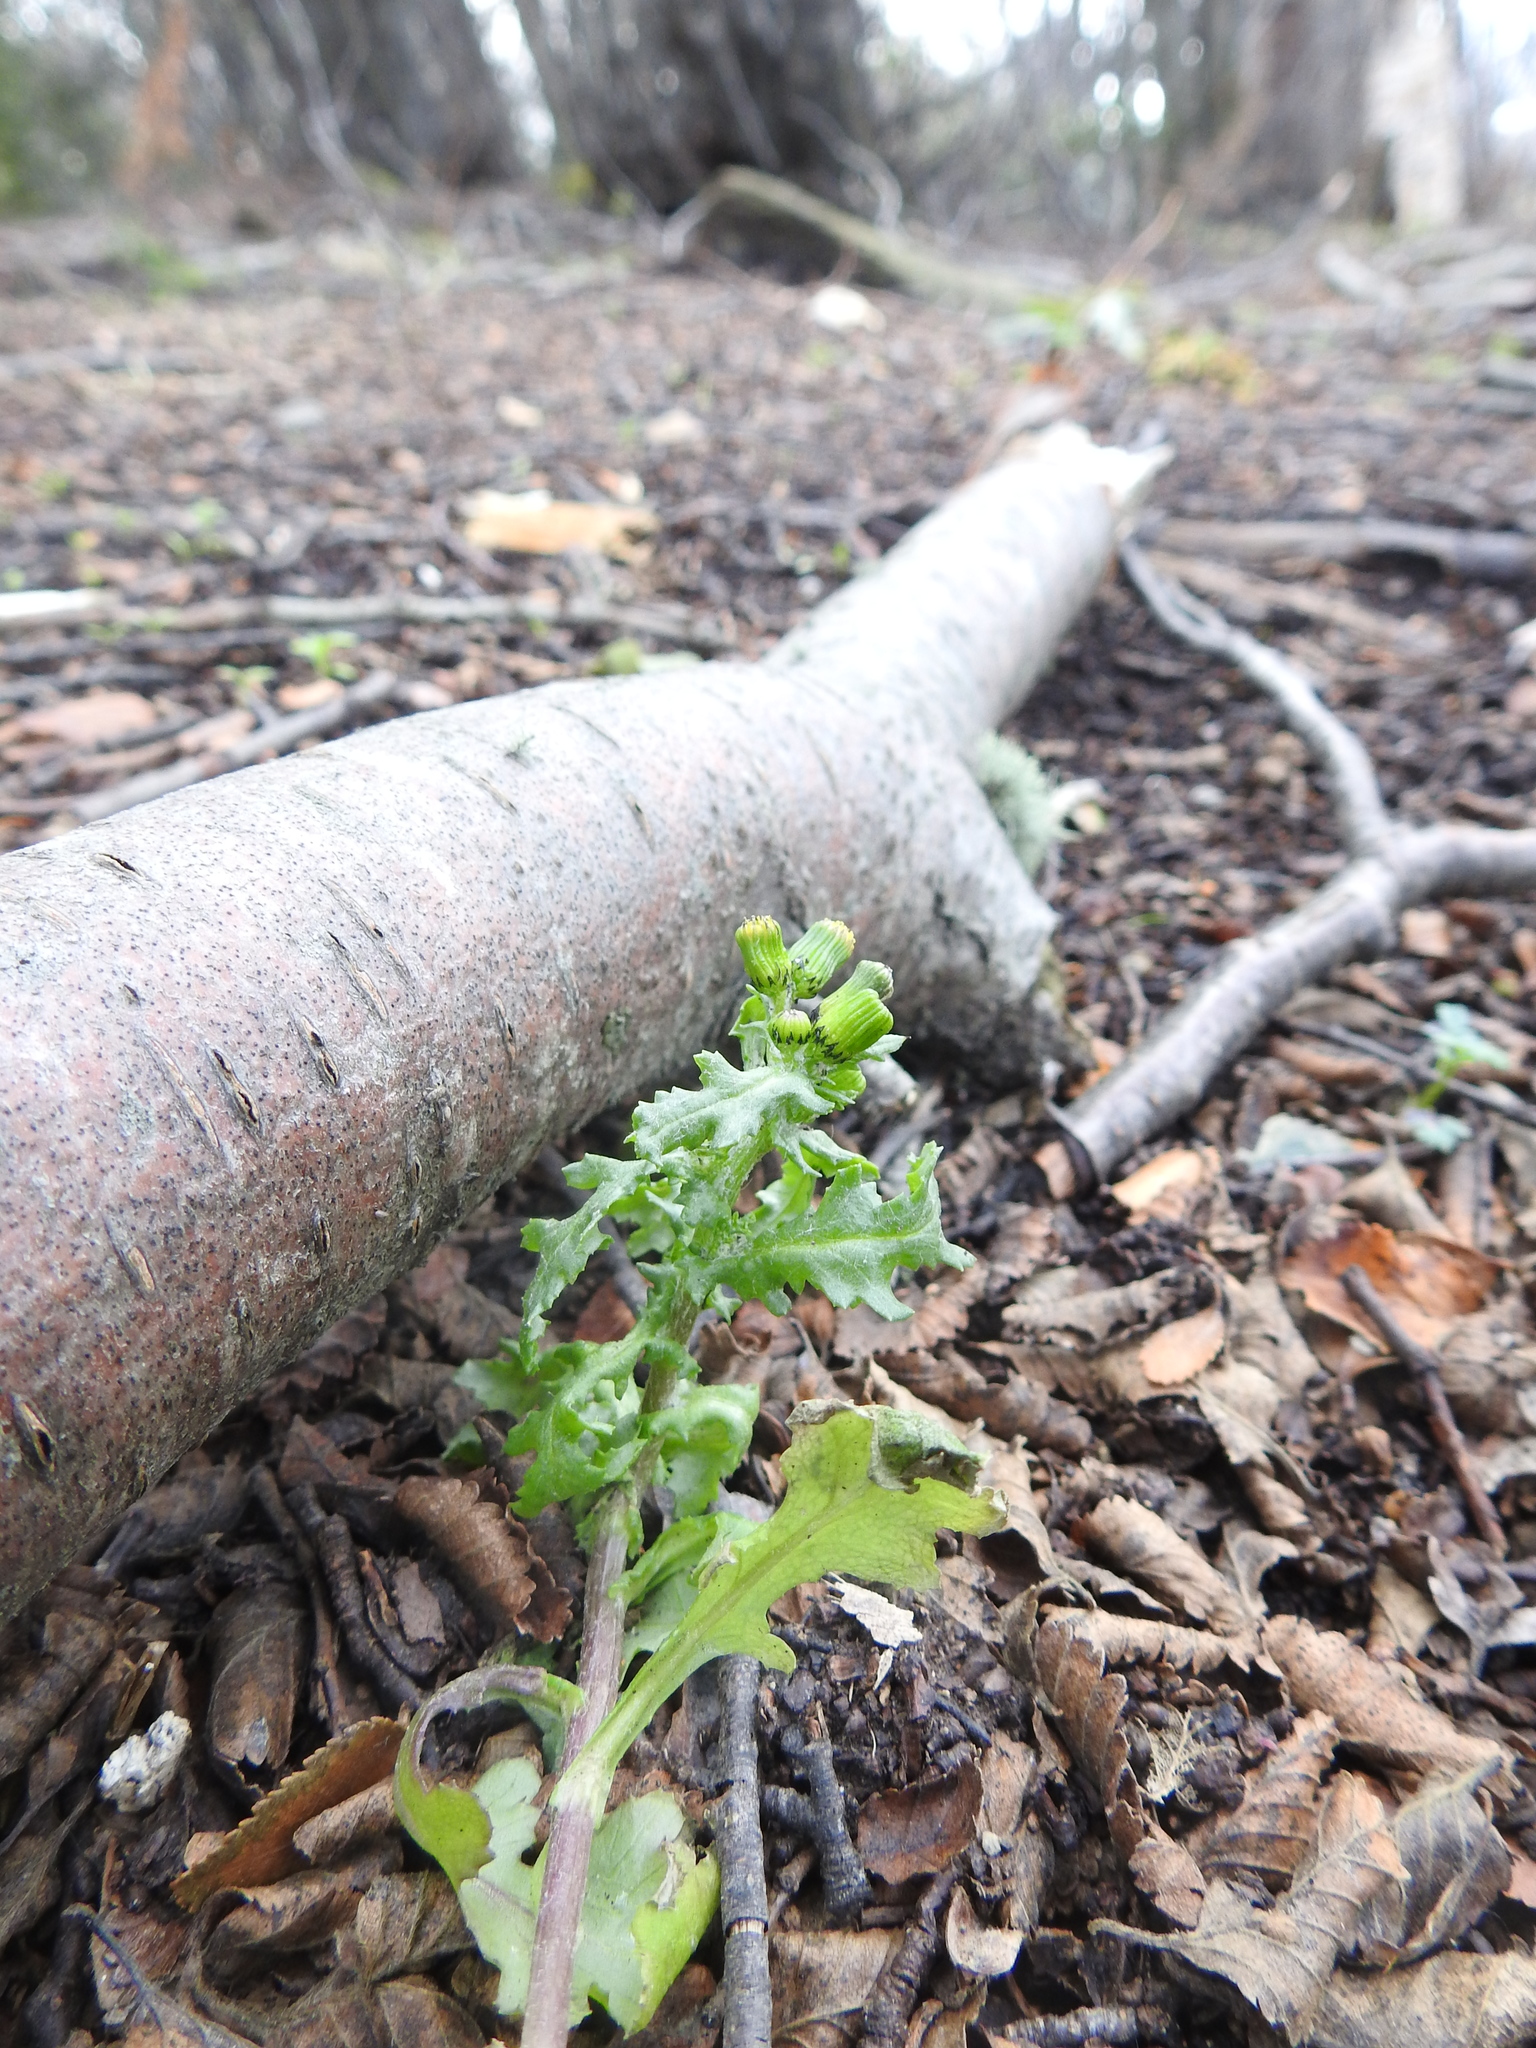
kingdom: Plantae
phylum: Tracheophyta
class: Magnoliopsida
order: Asterales
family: Asteraceae
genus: Senecio
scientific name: Senecio vulgaris
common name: Old-man-in-the-spring
